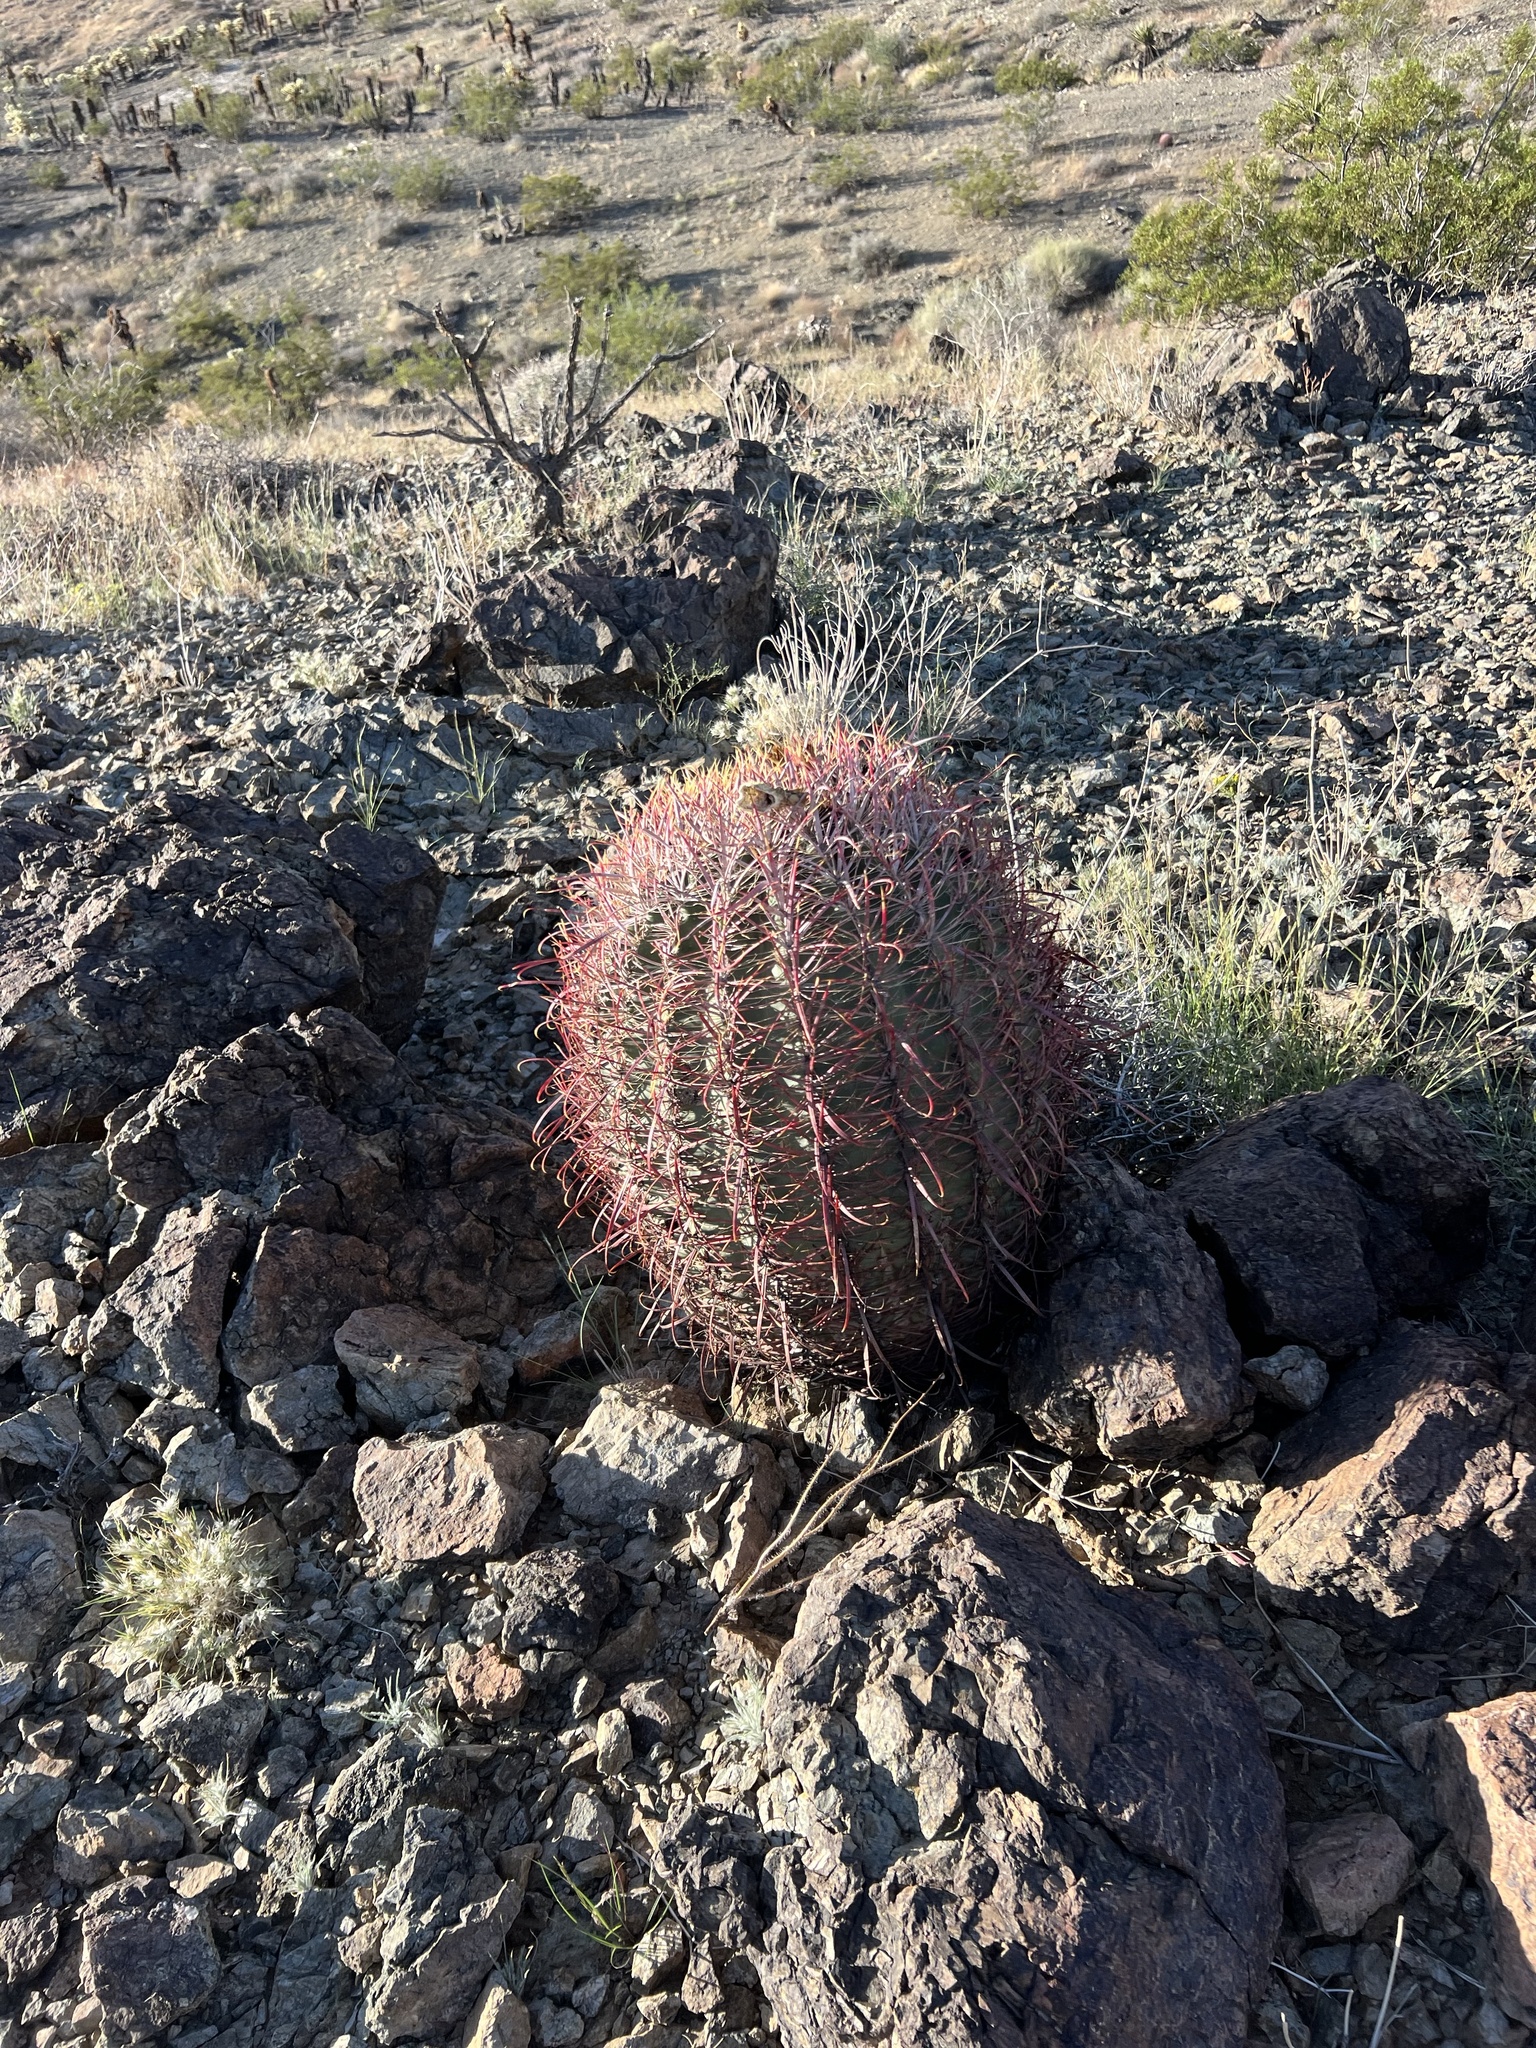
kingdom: Plantae
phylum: Tracheophyta
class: Magnoliopsida
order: Caryophyllales
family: Cactaceae
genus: Ferocactus
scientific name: Ferocactus cylindraceus
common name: California barrel cactus
